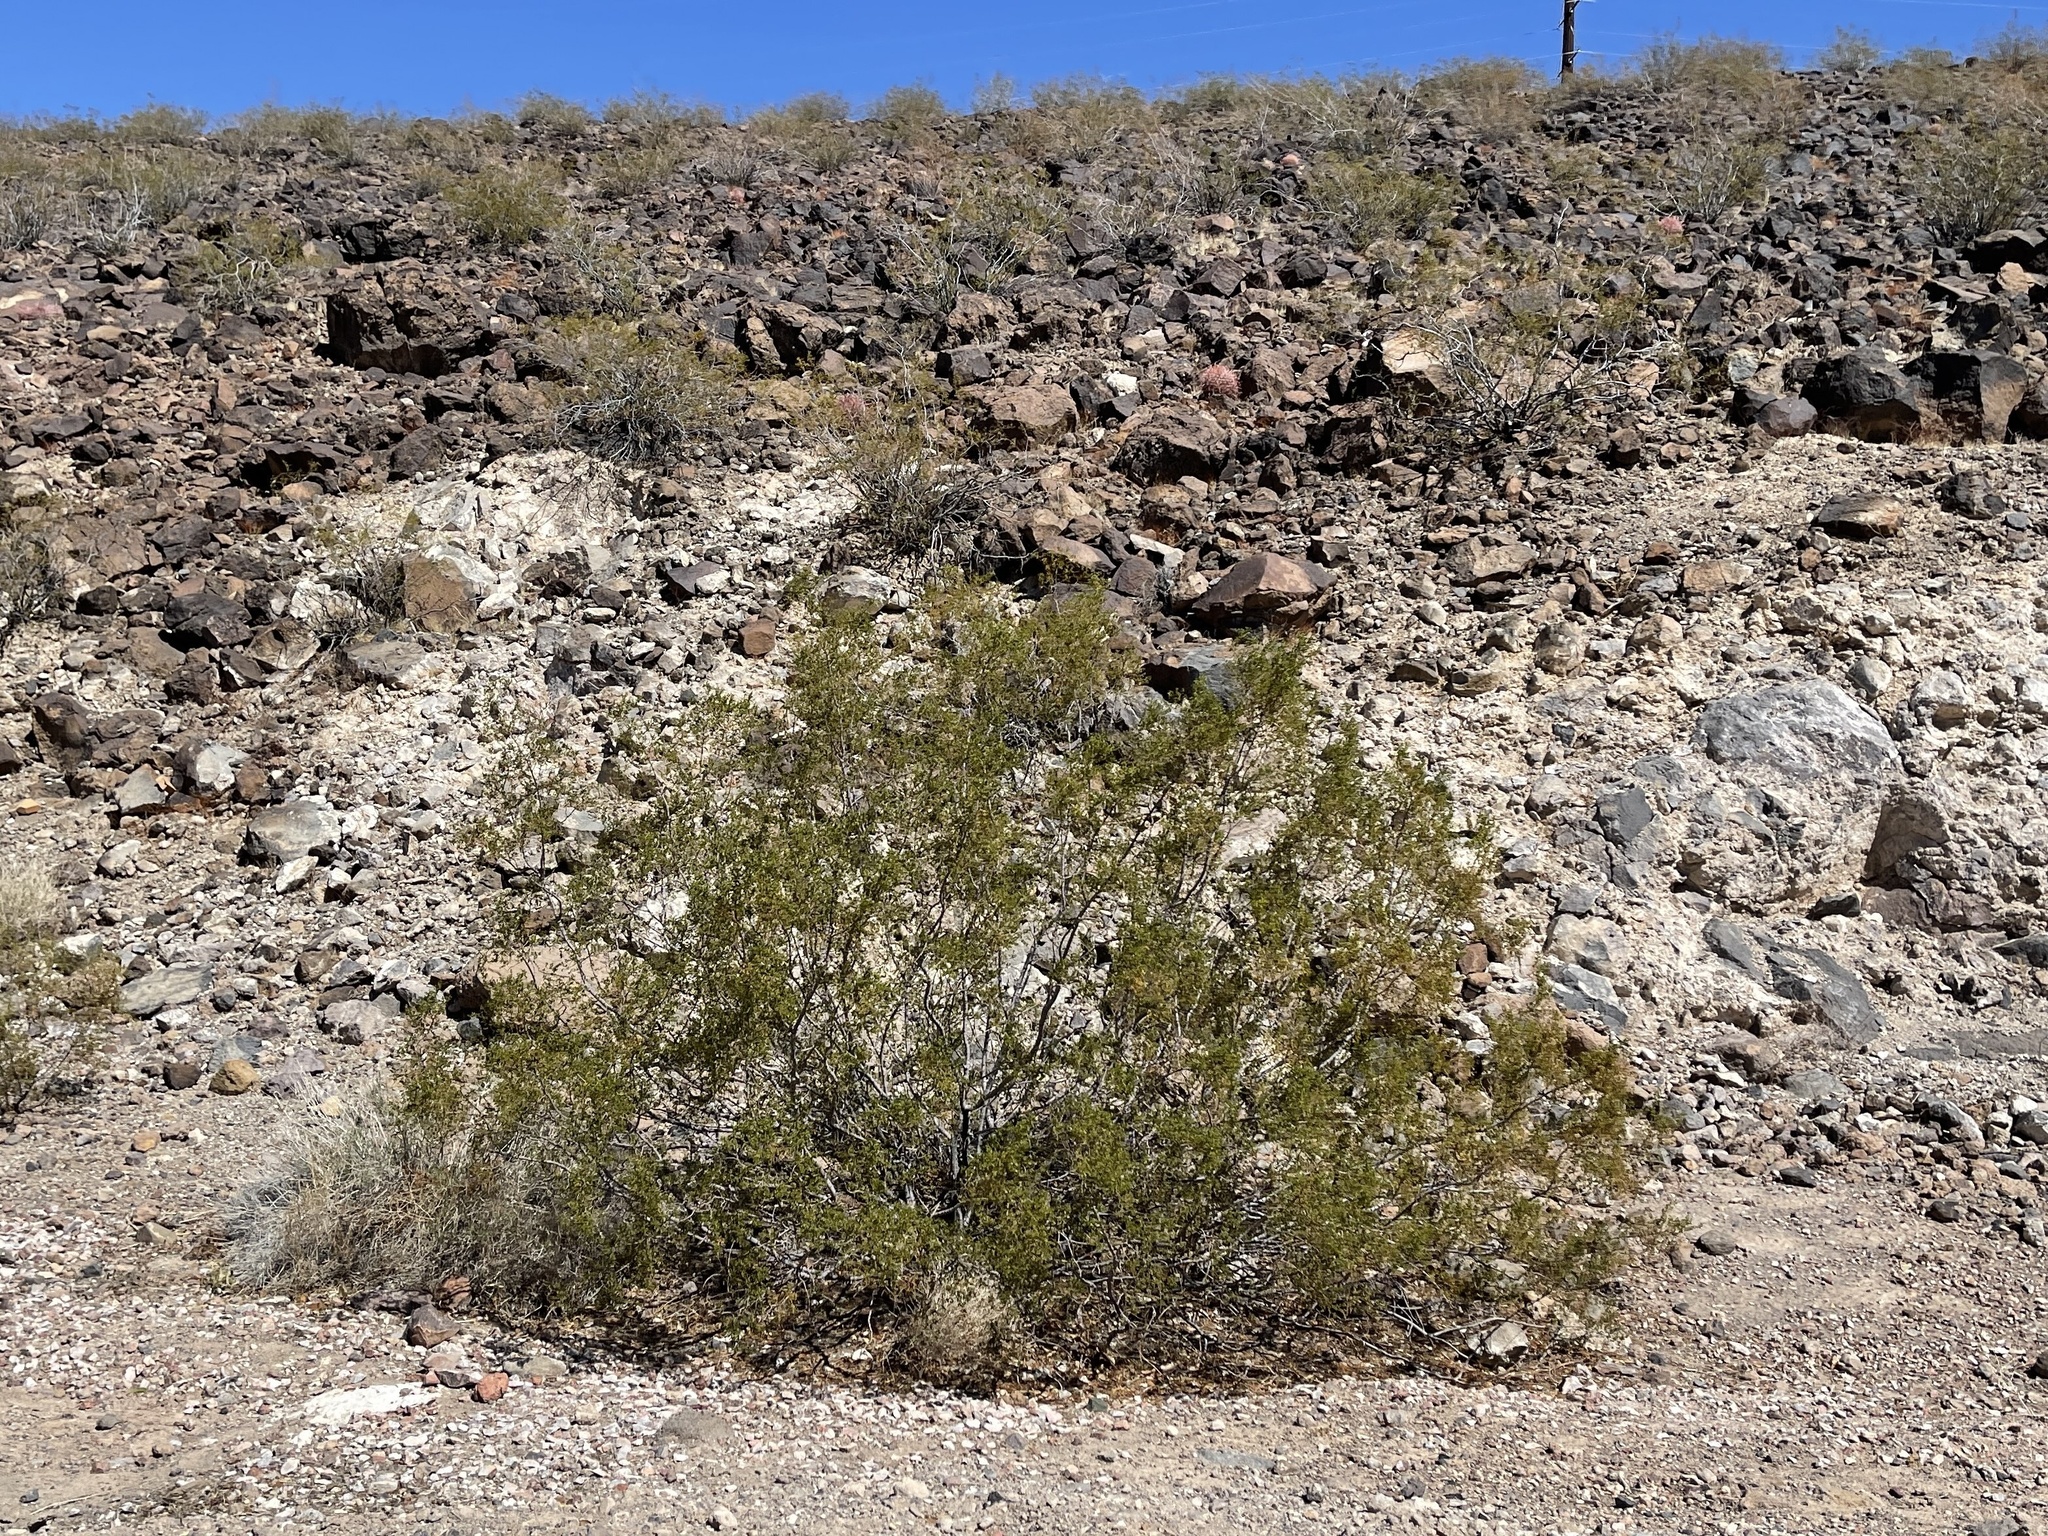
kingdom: Plantae
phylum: Tracheophyta
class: Magnoliopsida
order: Zygophyllales
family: Zygophyllaceae
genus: Larrea
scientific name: Larrea tridentata
